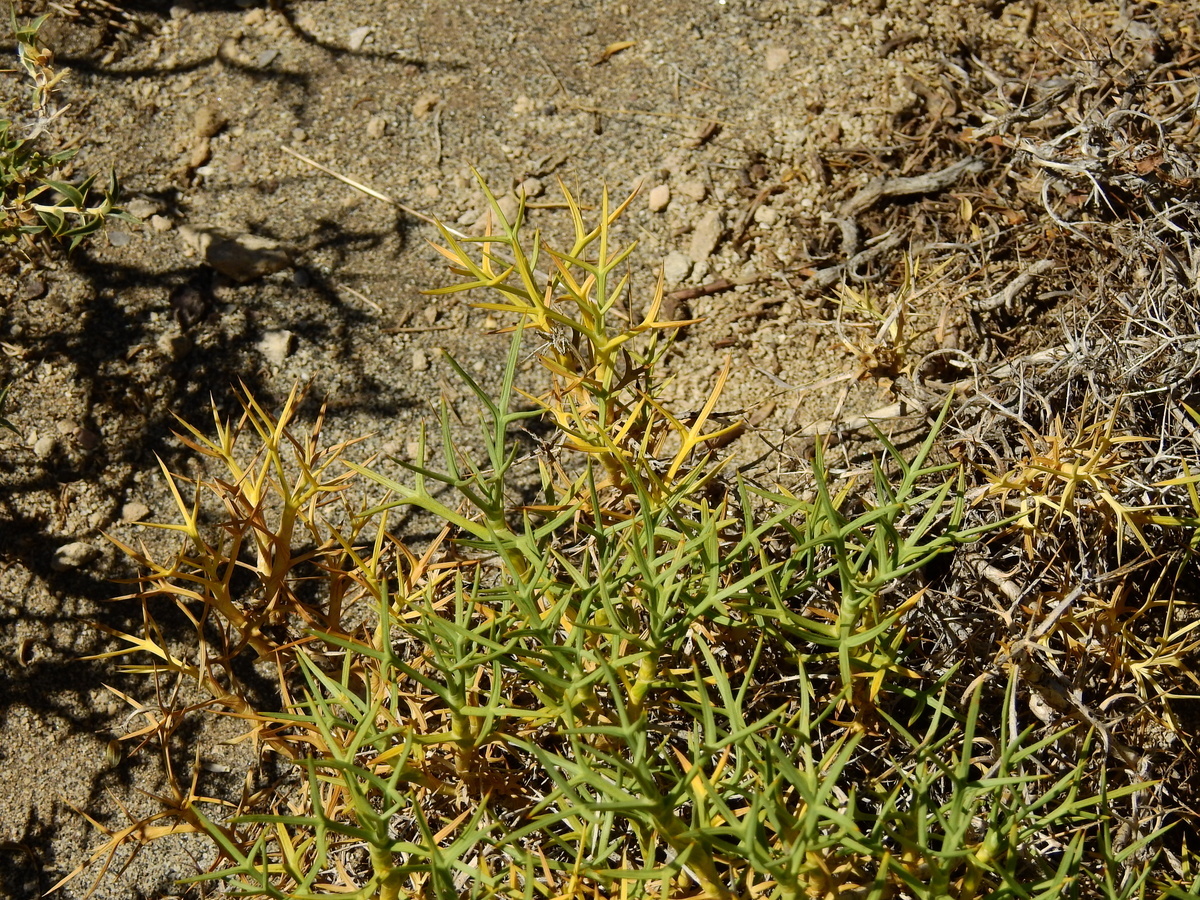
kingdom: Plantae
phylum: Tracheophyta
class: Magnoliopsida
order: Apiales
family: Apiaceae
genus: Azorella
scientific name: Azorella prolifera
